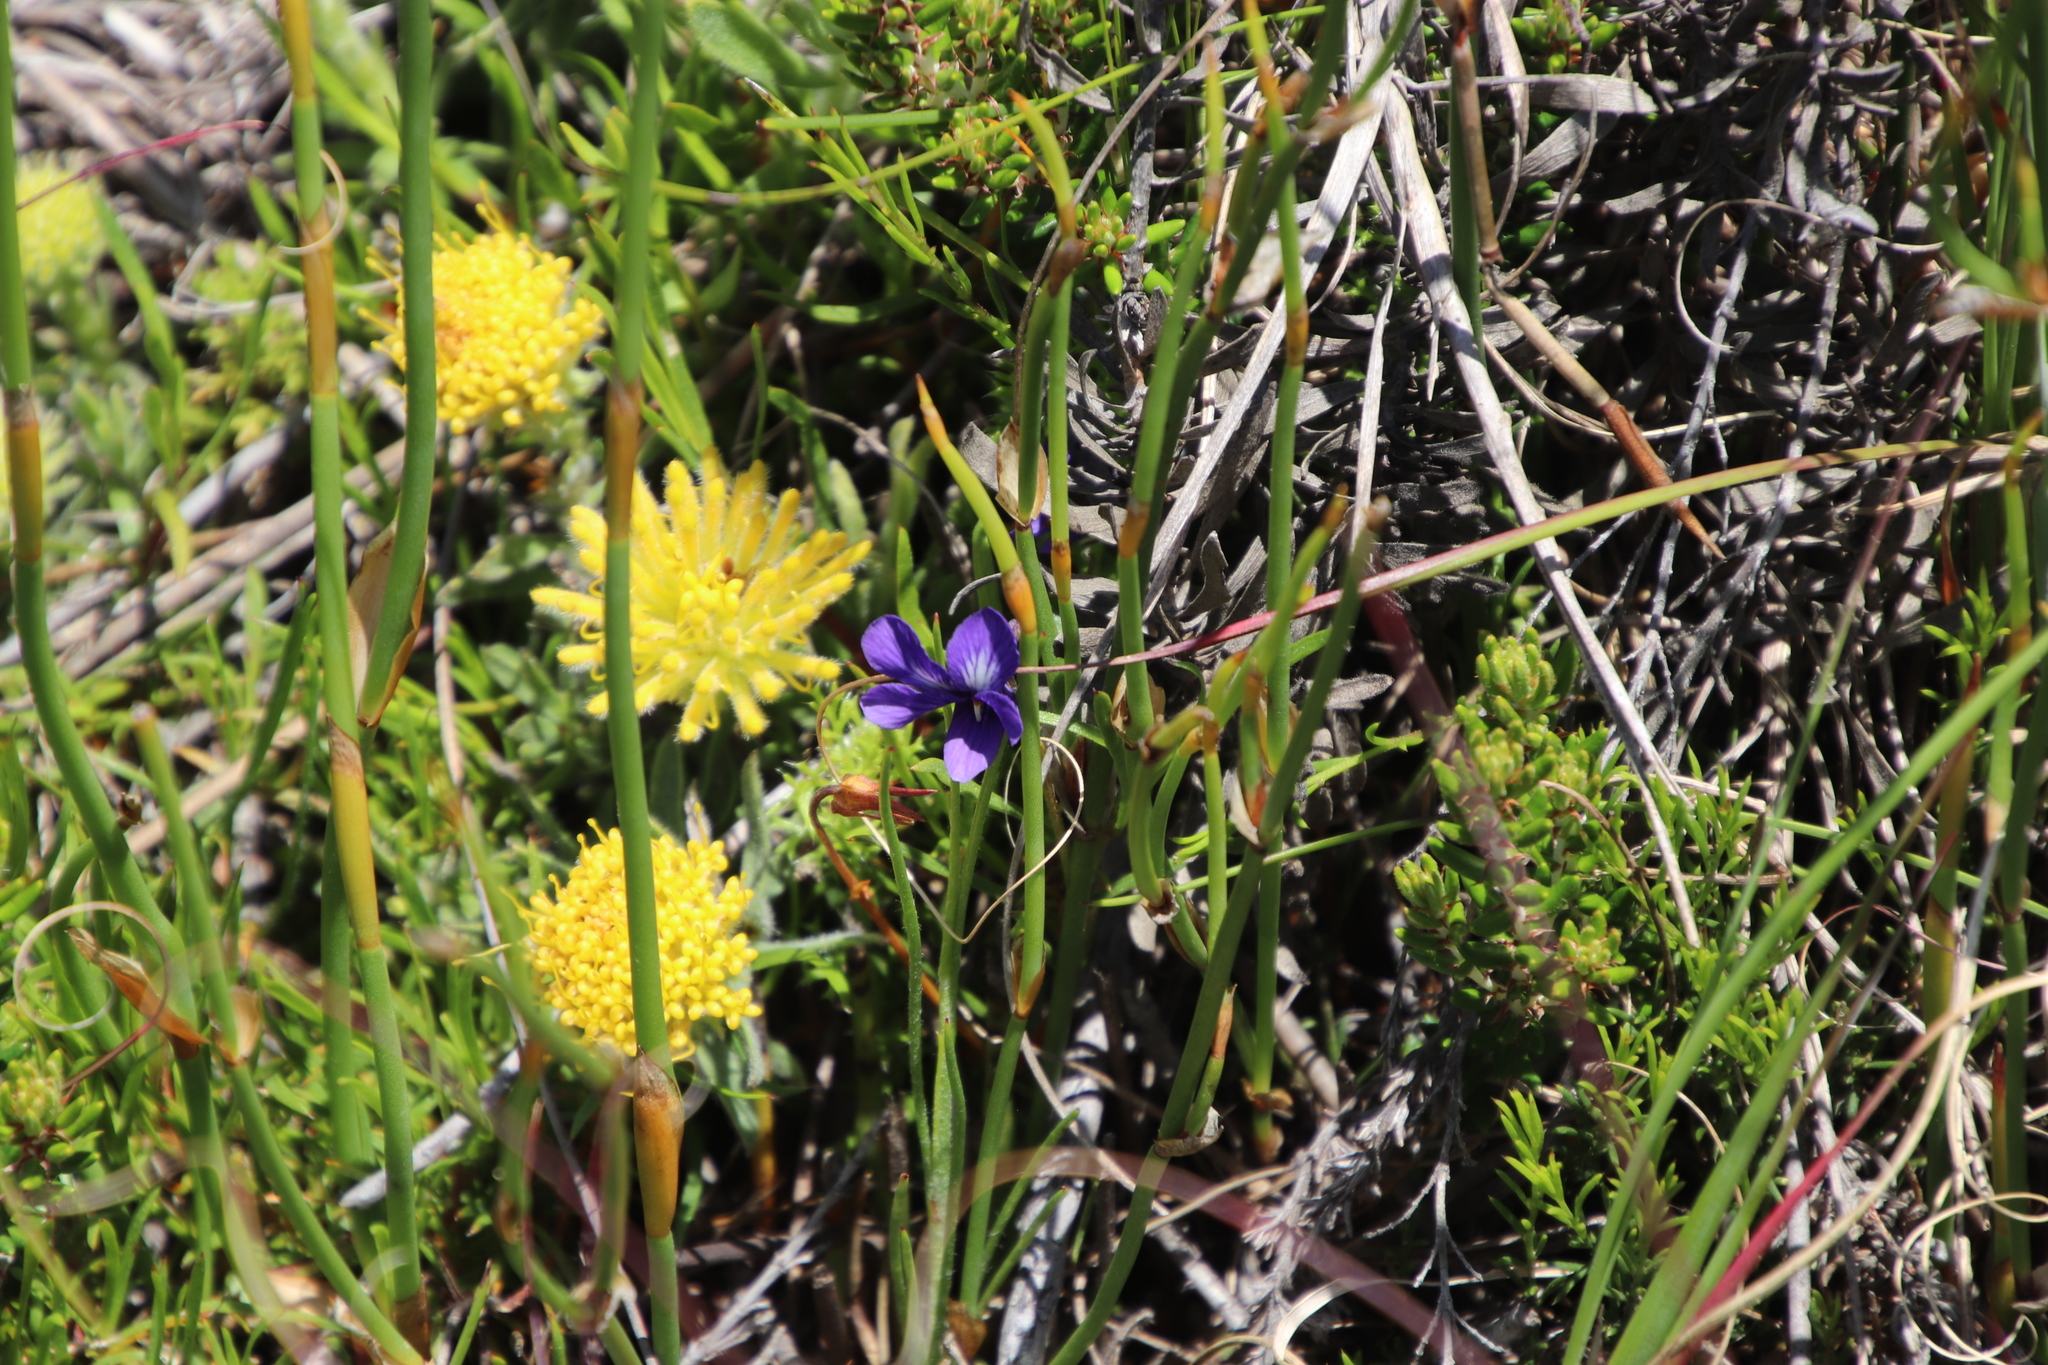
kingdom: Plantae
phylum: Tracheophyta
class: Magnoliopsida
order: Proteales
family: Proteaceae
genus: Leucospermum
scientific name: Leucospermum prostratum
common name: Yellow-trailing pincushion
